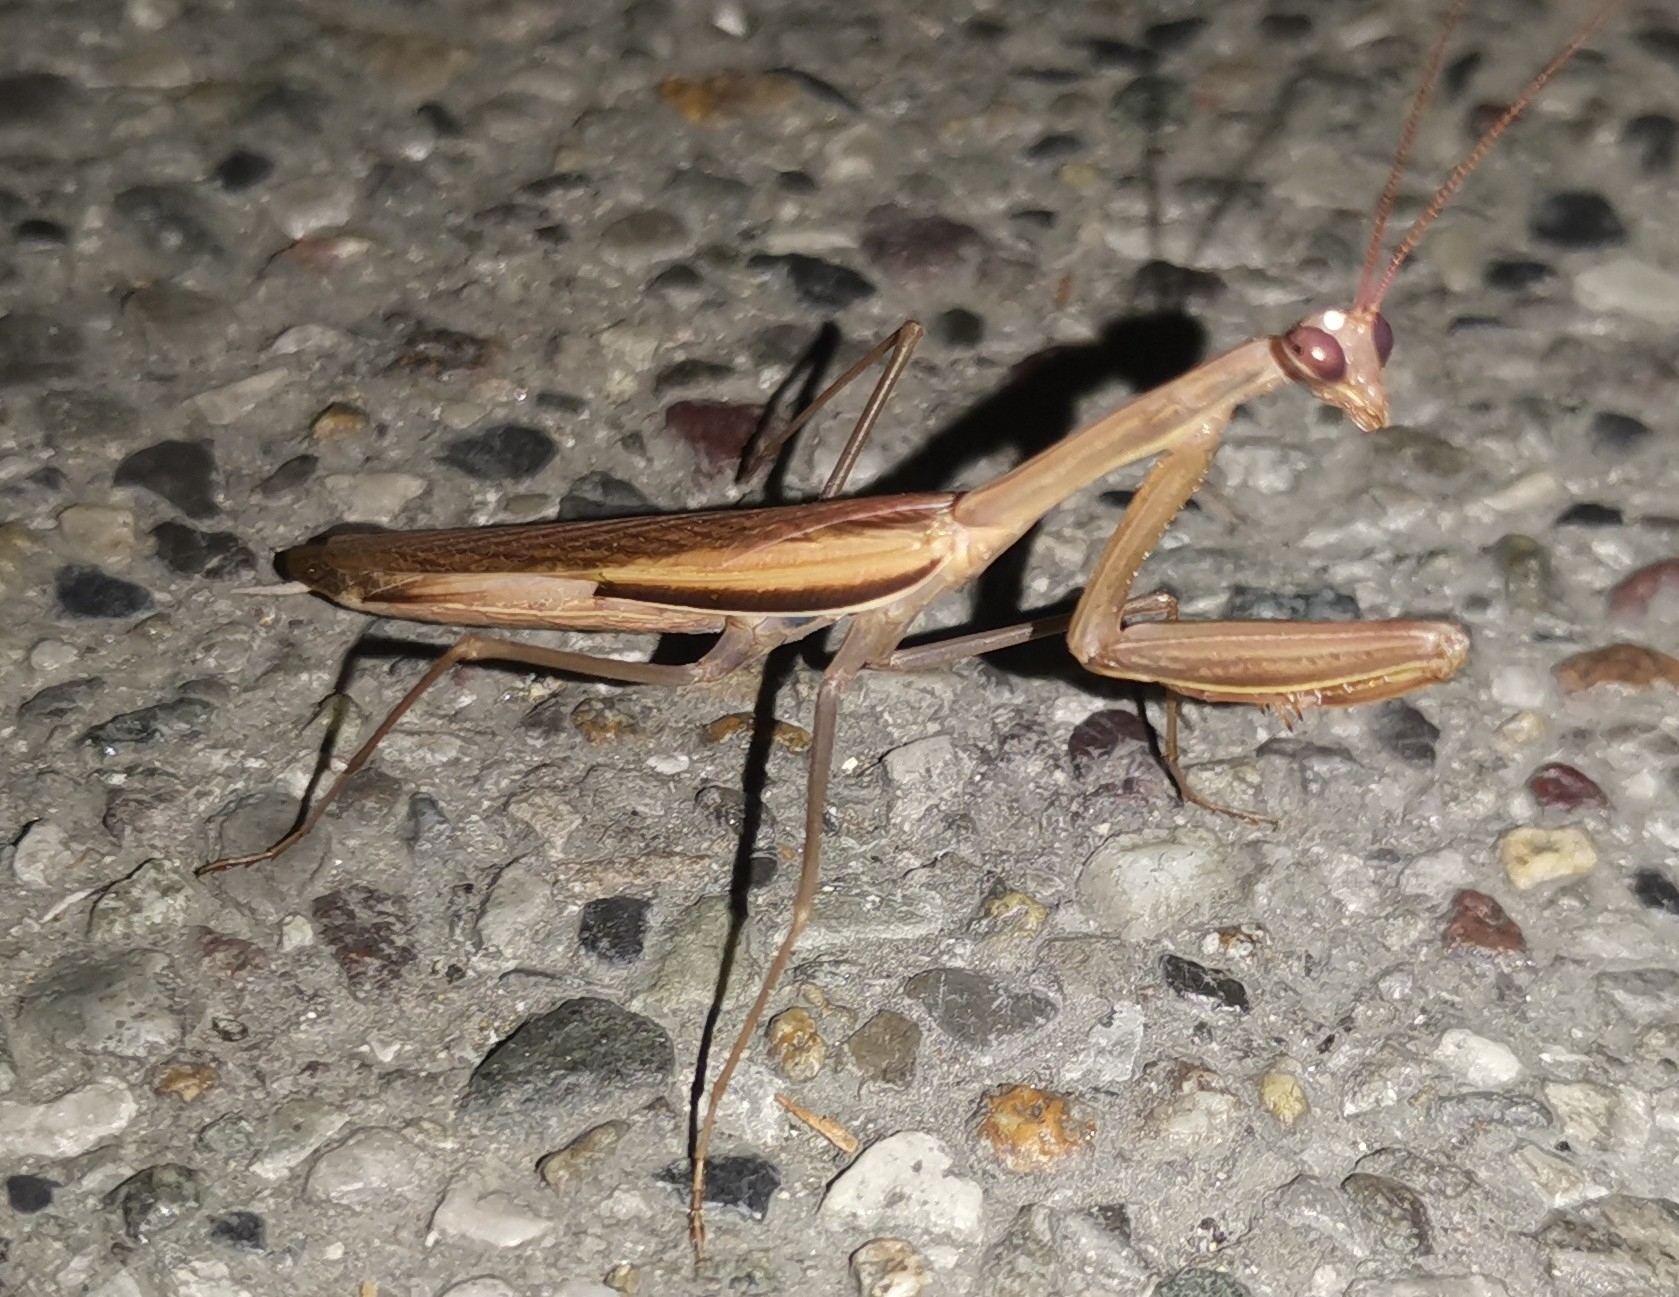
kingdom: Animalia
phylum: Arthropoda
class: Insecta
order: Mantodea
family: Mantidae
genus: Mantis
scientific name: Mantis religiosa
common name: Praying mantis
